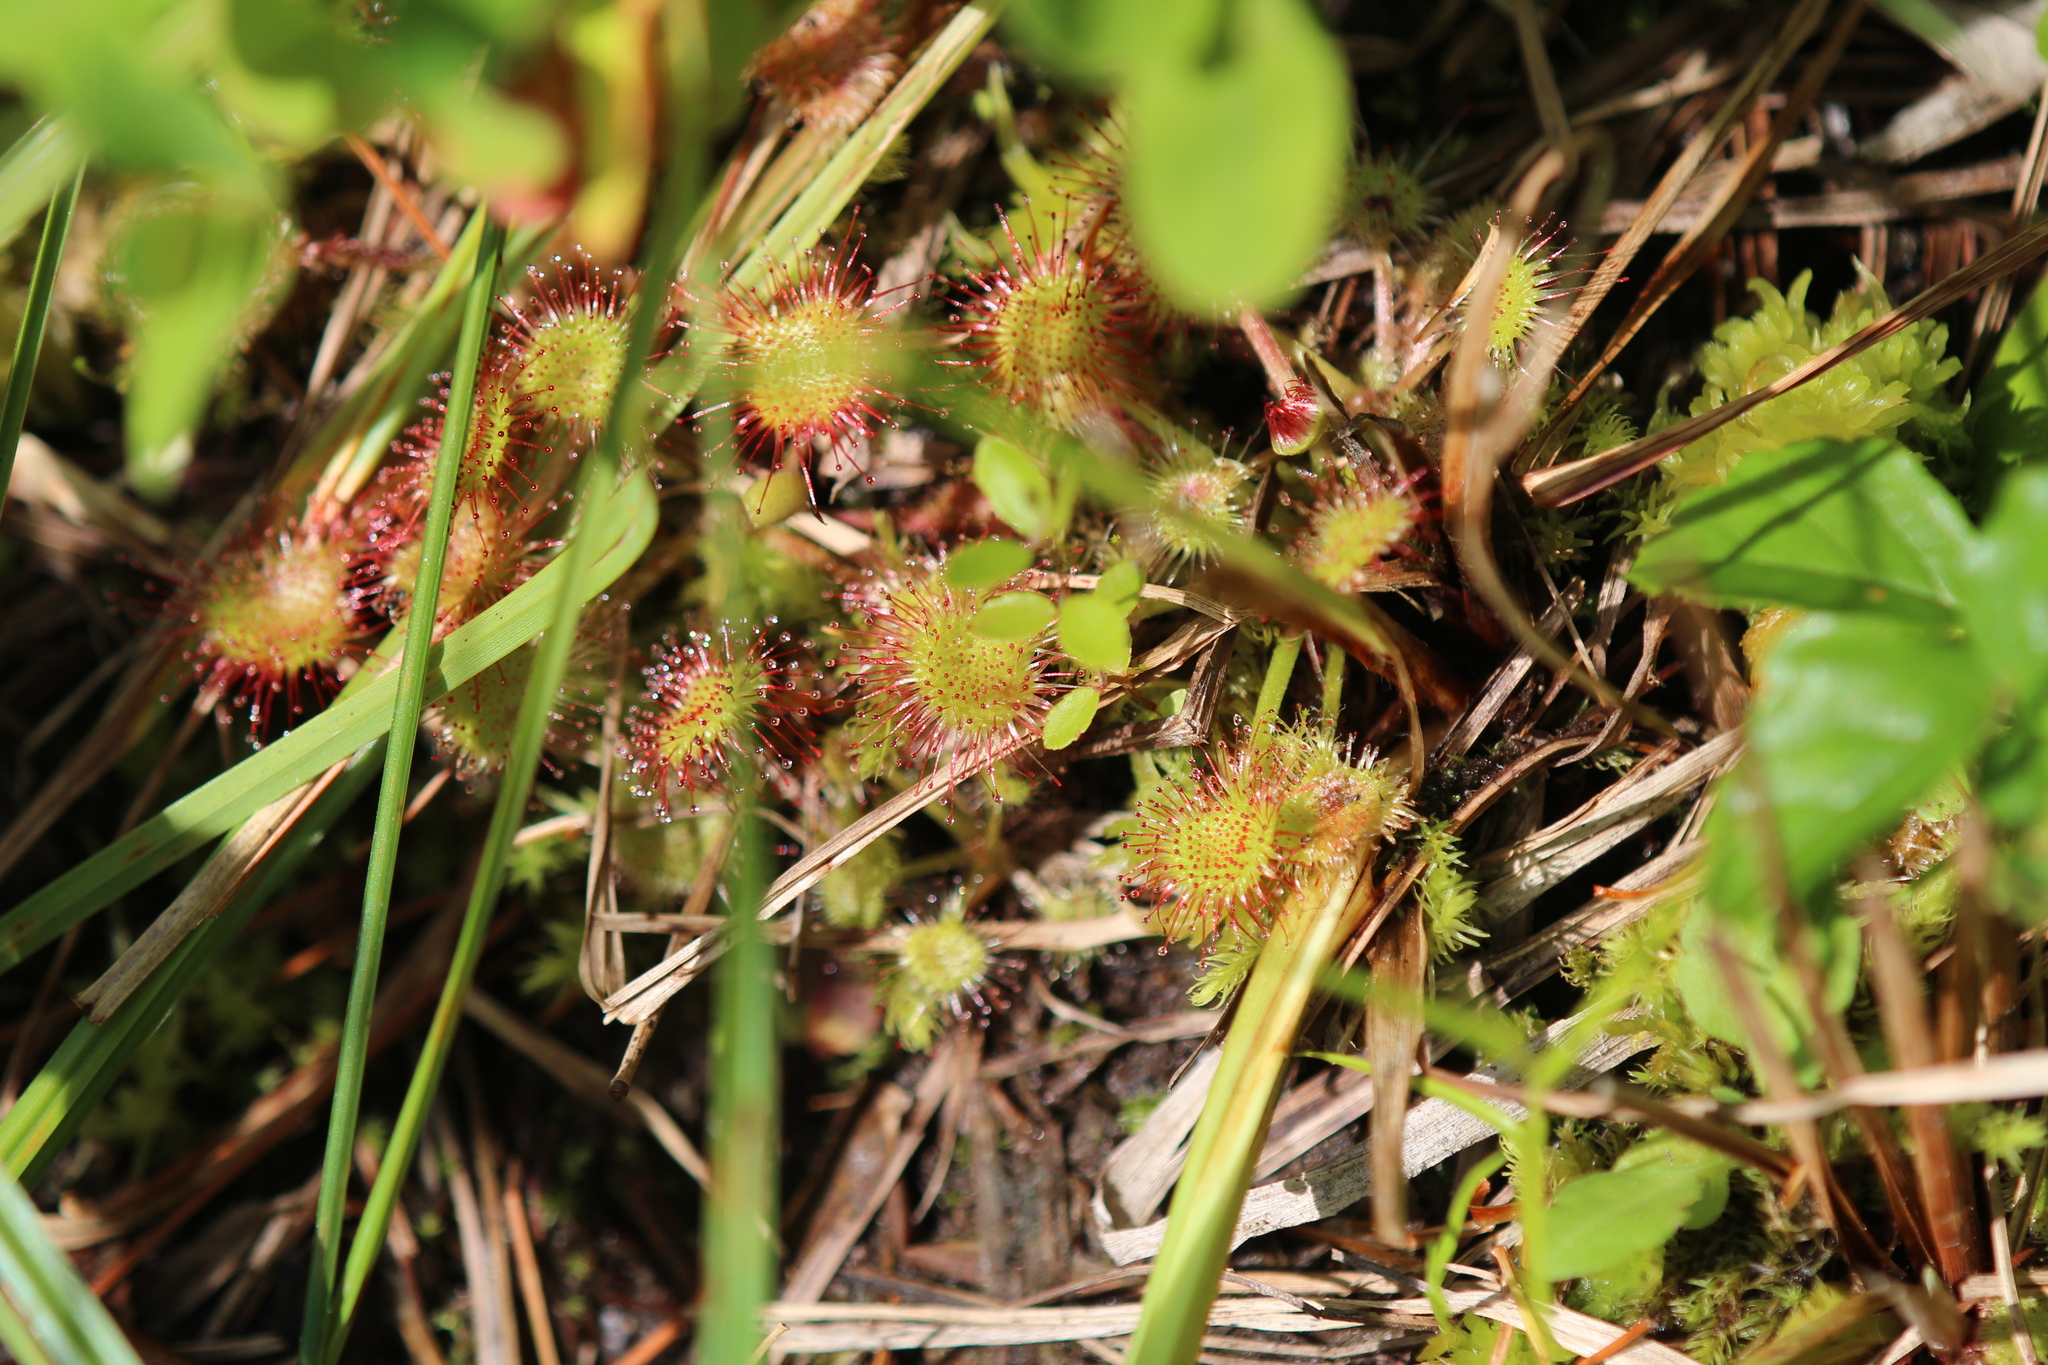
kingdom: Plantae
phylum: Tracheophyta
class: Magnoliopsida
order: Caryophyllales
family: Droseraceae
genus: Drosera
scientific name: Drosera rotundifolia
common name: Round-leaved sundew
